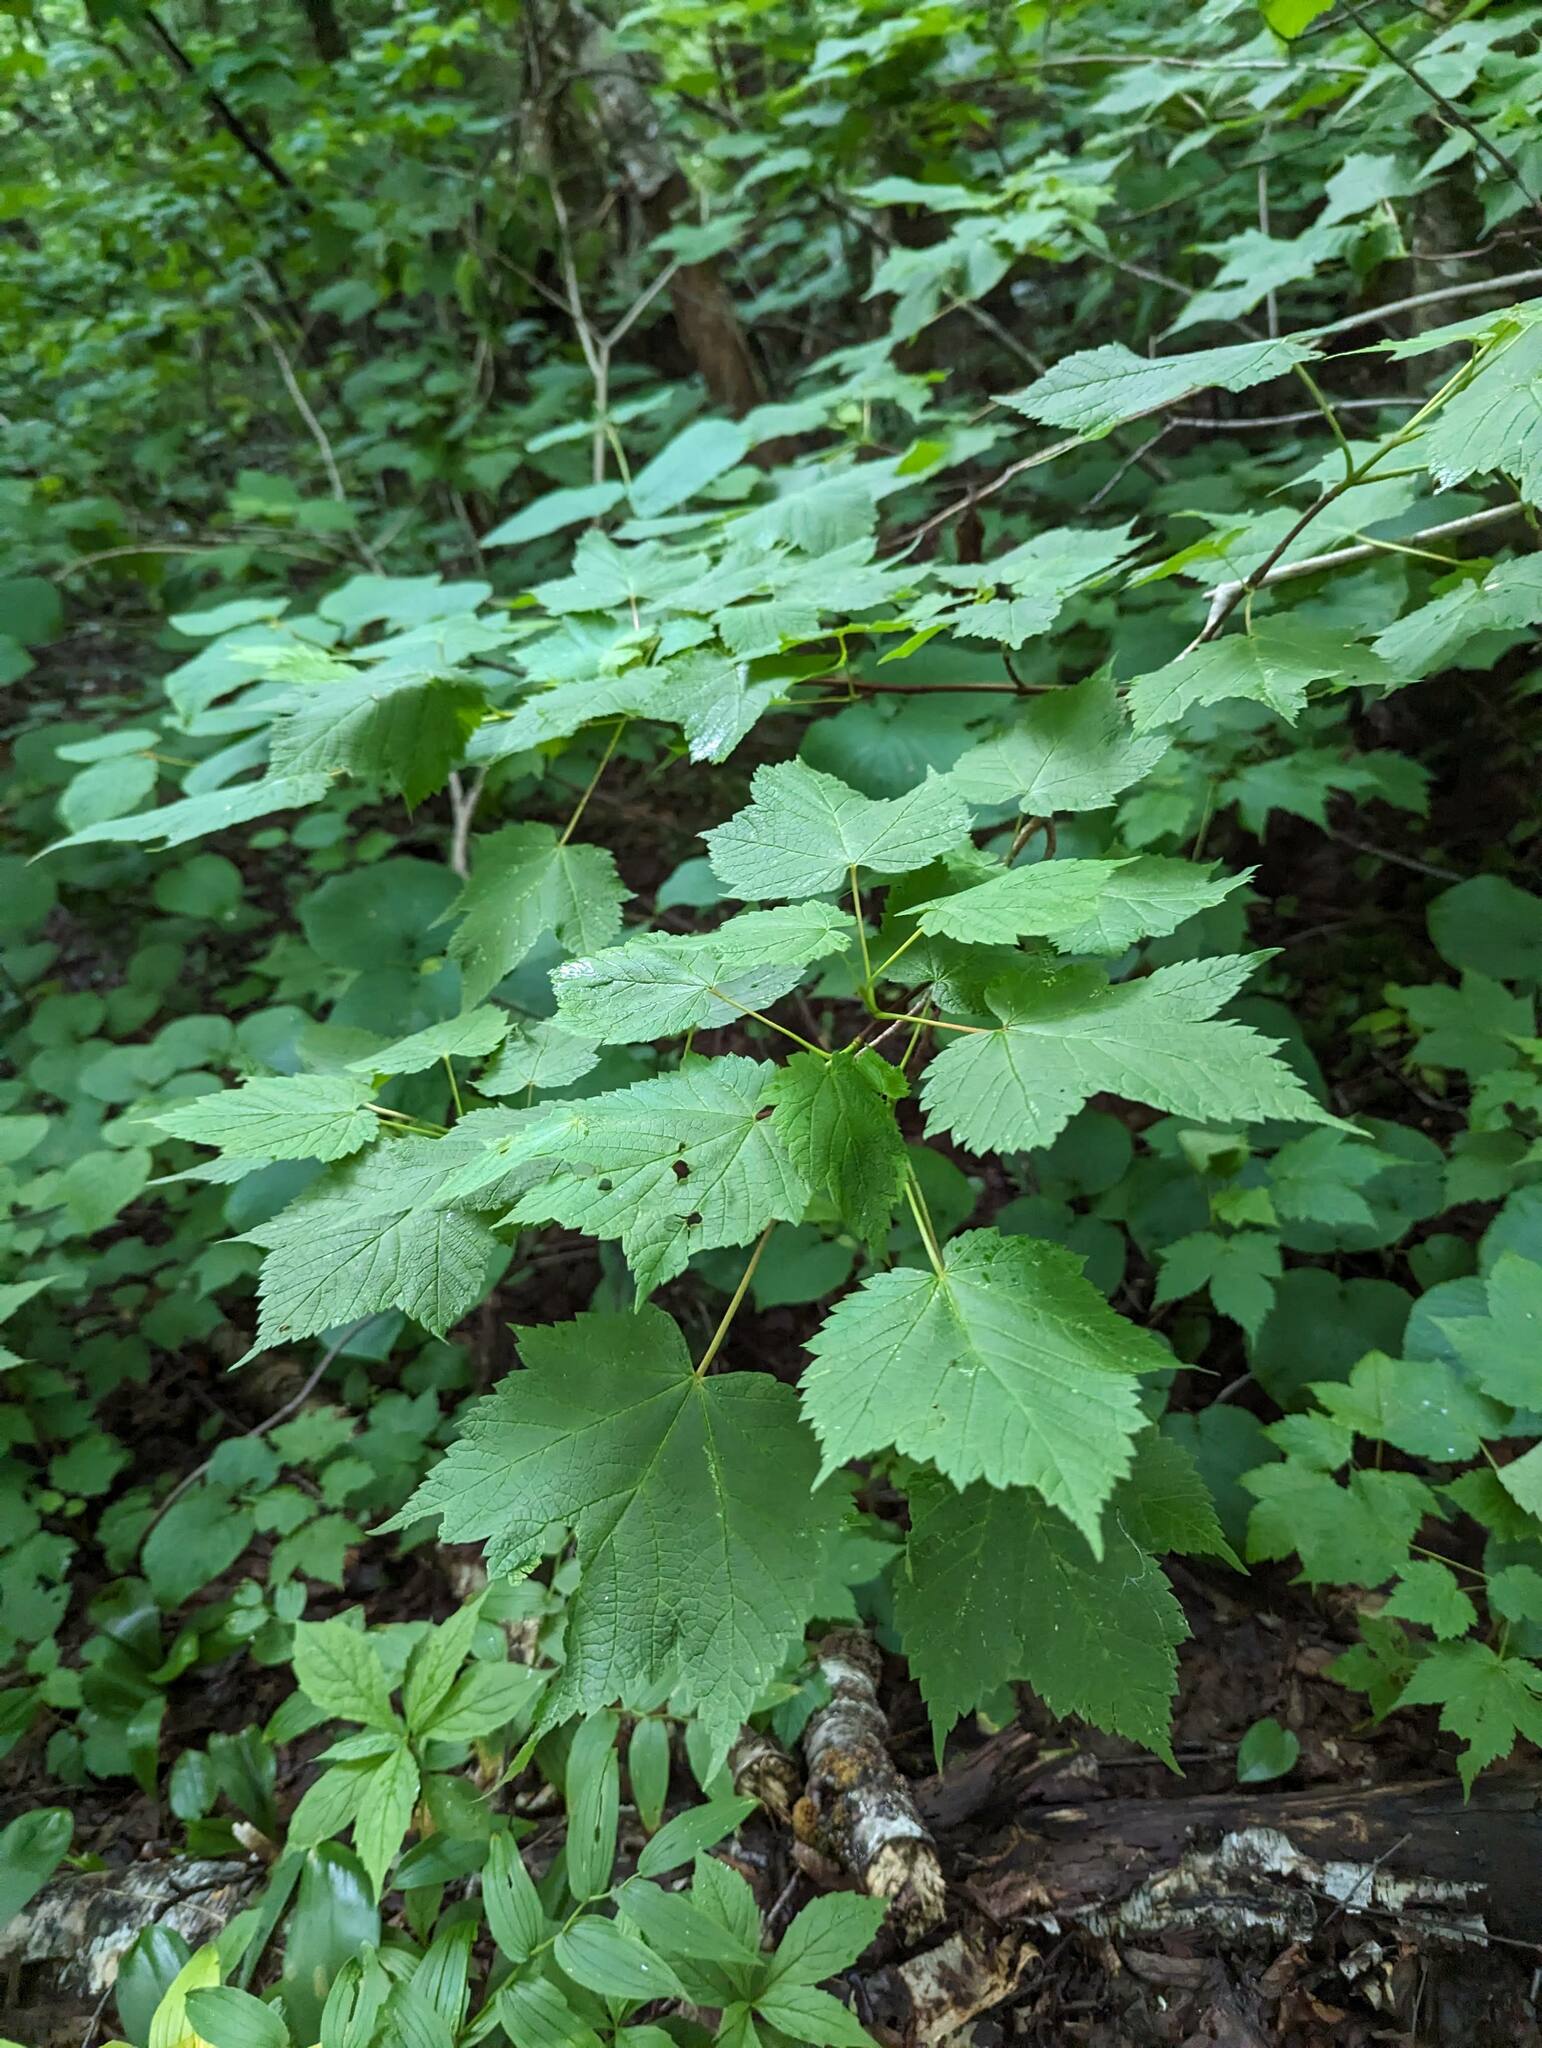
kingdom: Plantae
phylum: Tracheophyta
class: Magnoliopsida
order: Sapindales
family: Sapindaceae
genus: Acer
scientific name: Acer spicatum
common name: Mountain maple
